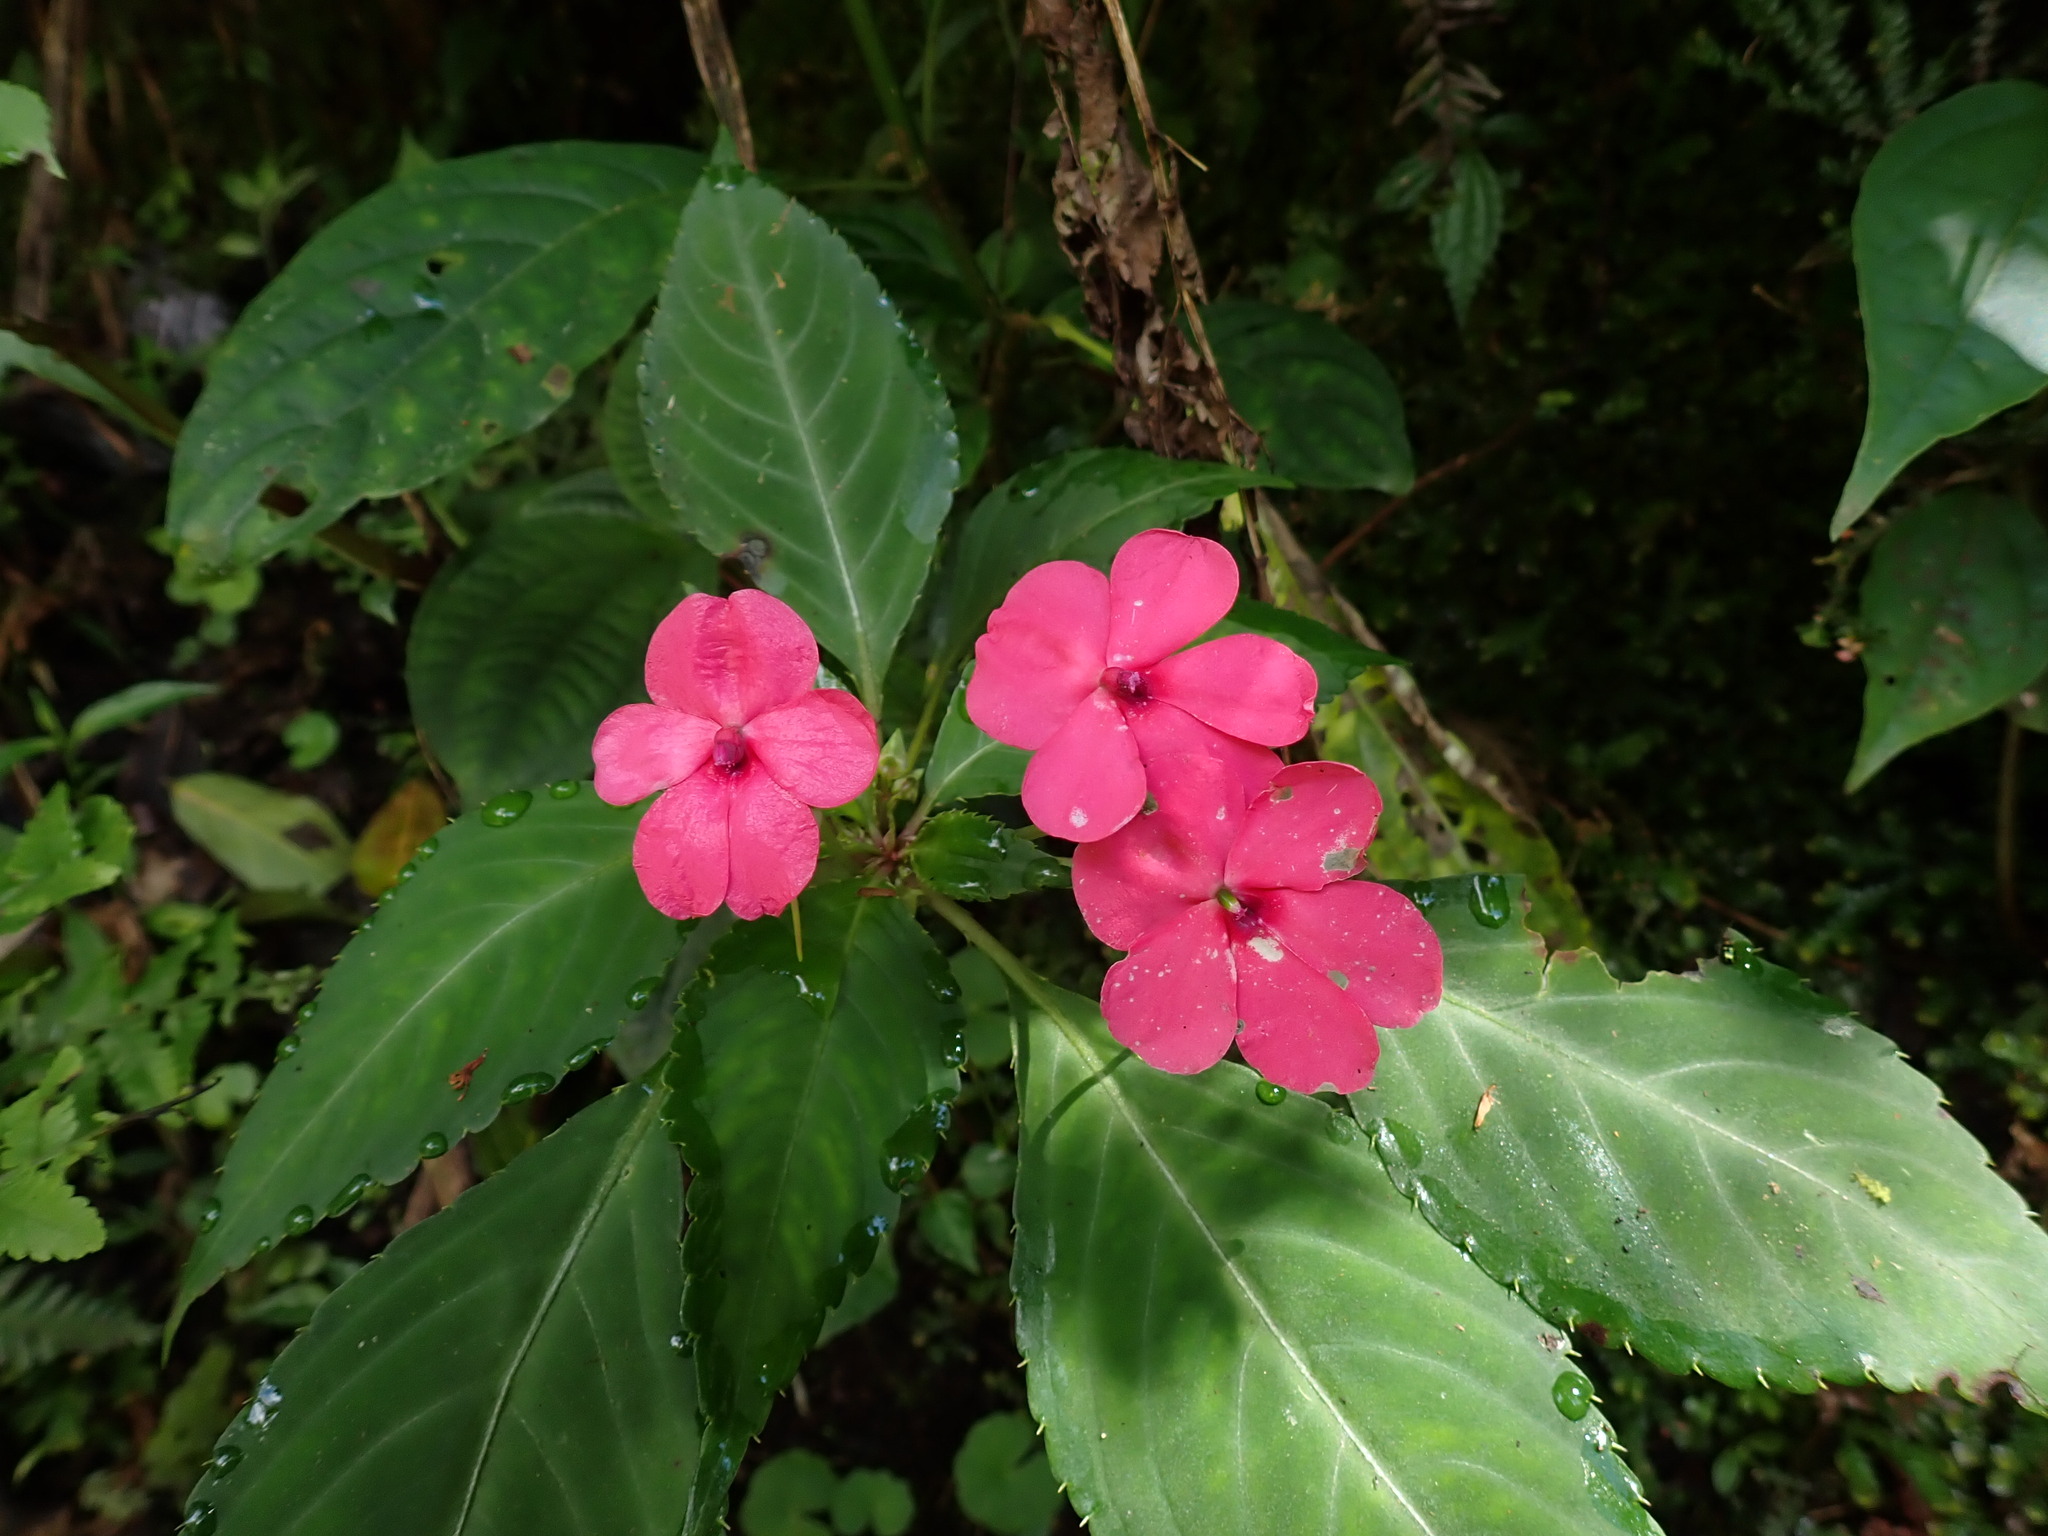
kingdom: Plantae
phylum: Tracheophyta
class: Magnoliopsida
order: Ericales
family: Balsaminaceae
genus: Impatiens
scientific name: Impatiens walleriana
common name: Buzzy lizzy
